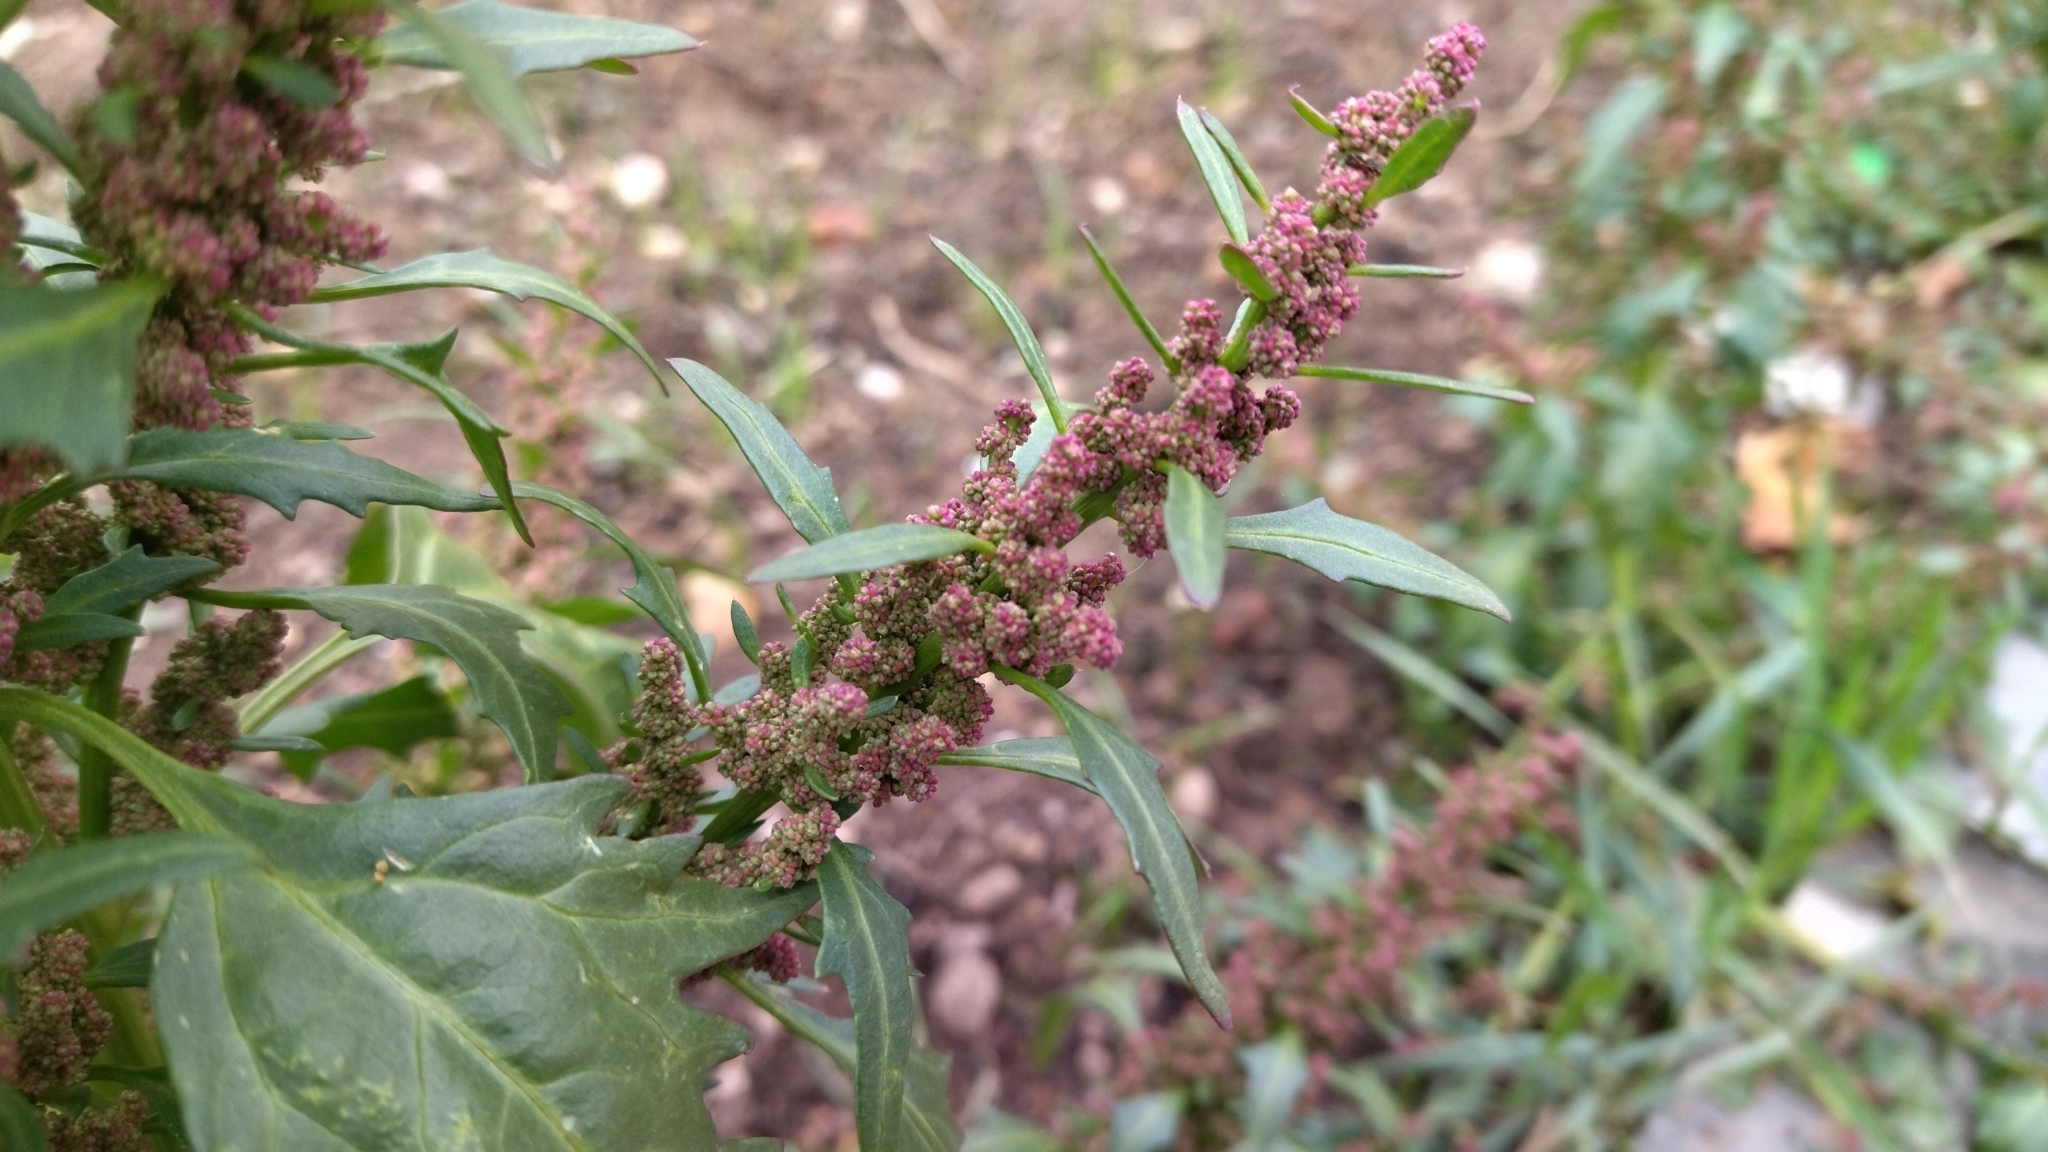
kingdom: Plantae
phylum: Tracheophyta
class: Magnoliopsida
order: Caryophyllales
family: Amaranthaceae
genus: Oxybasis
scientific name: Oxybasis rubra
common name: Red goosefoot
